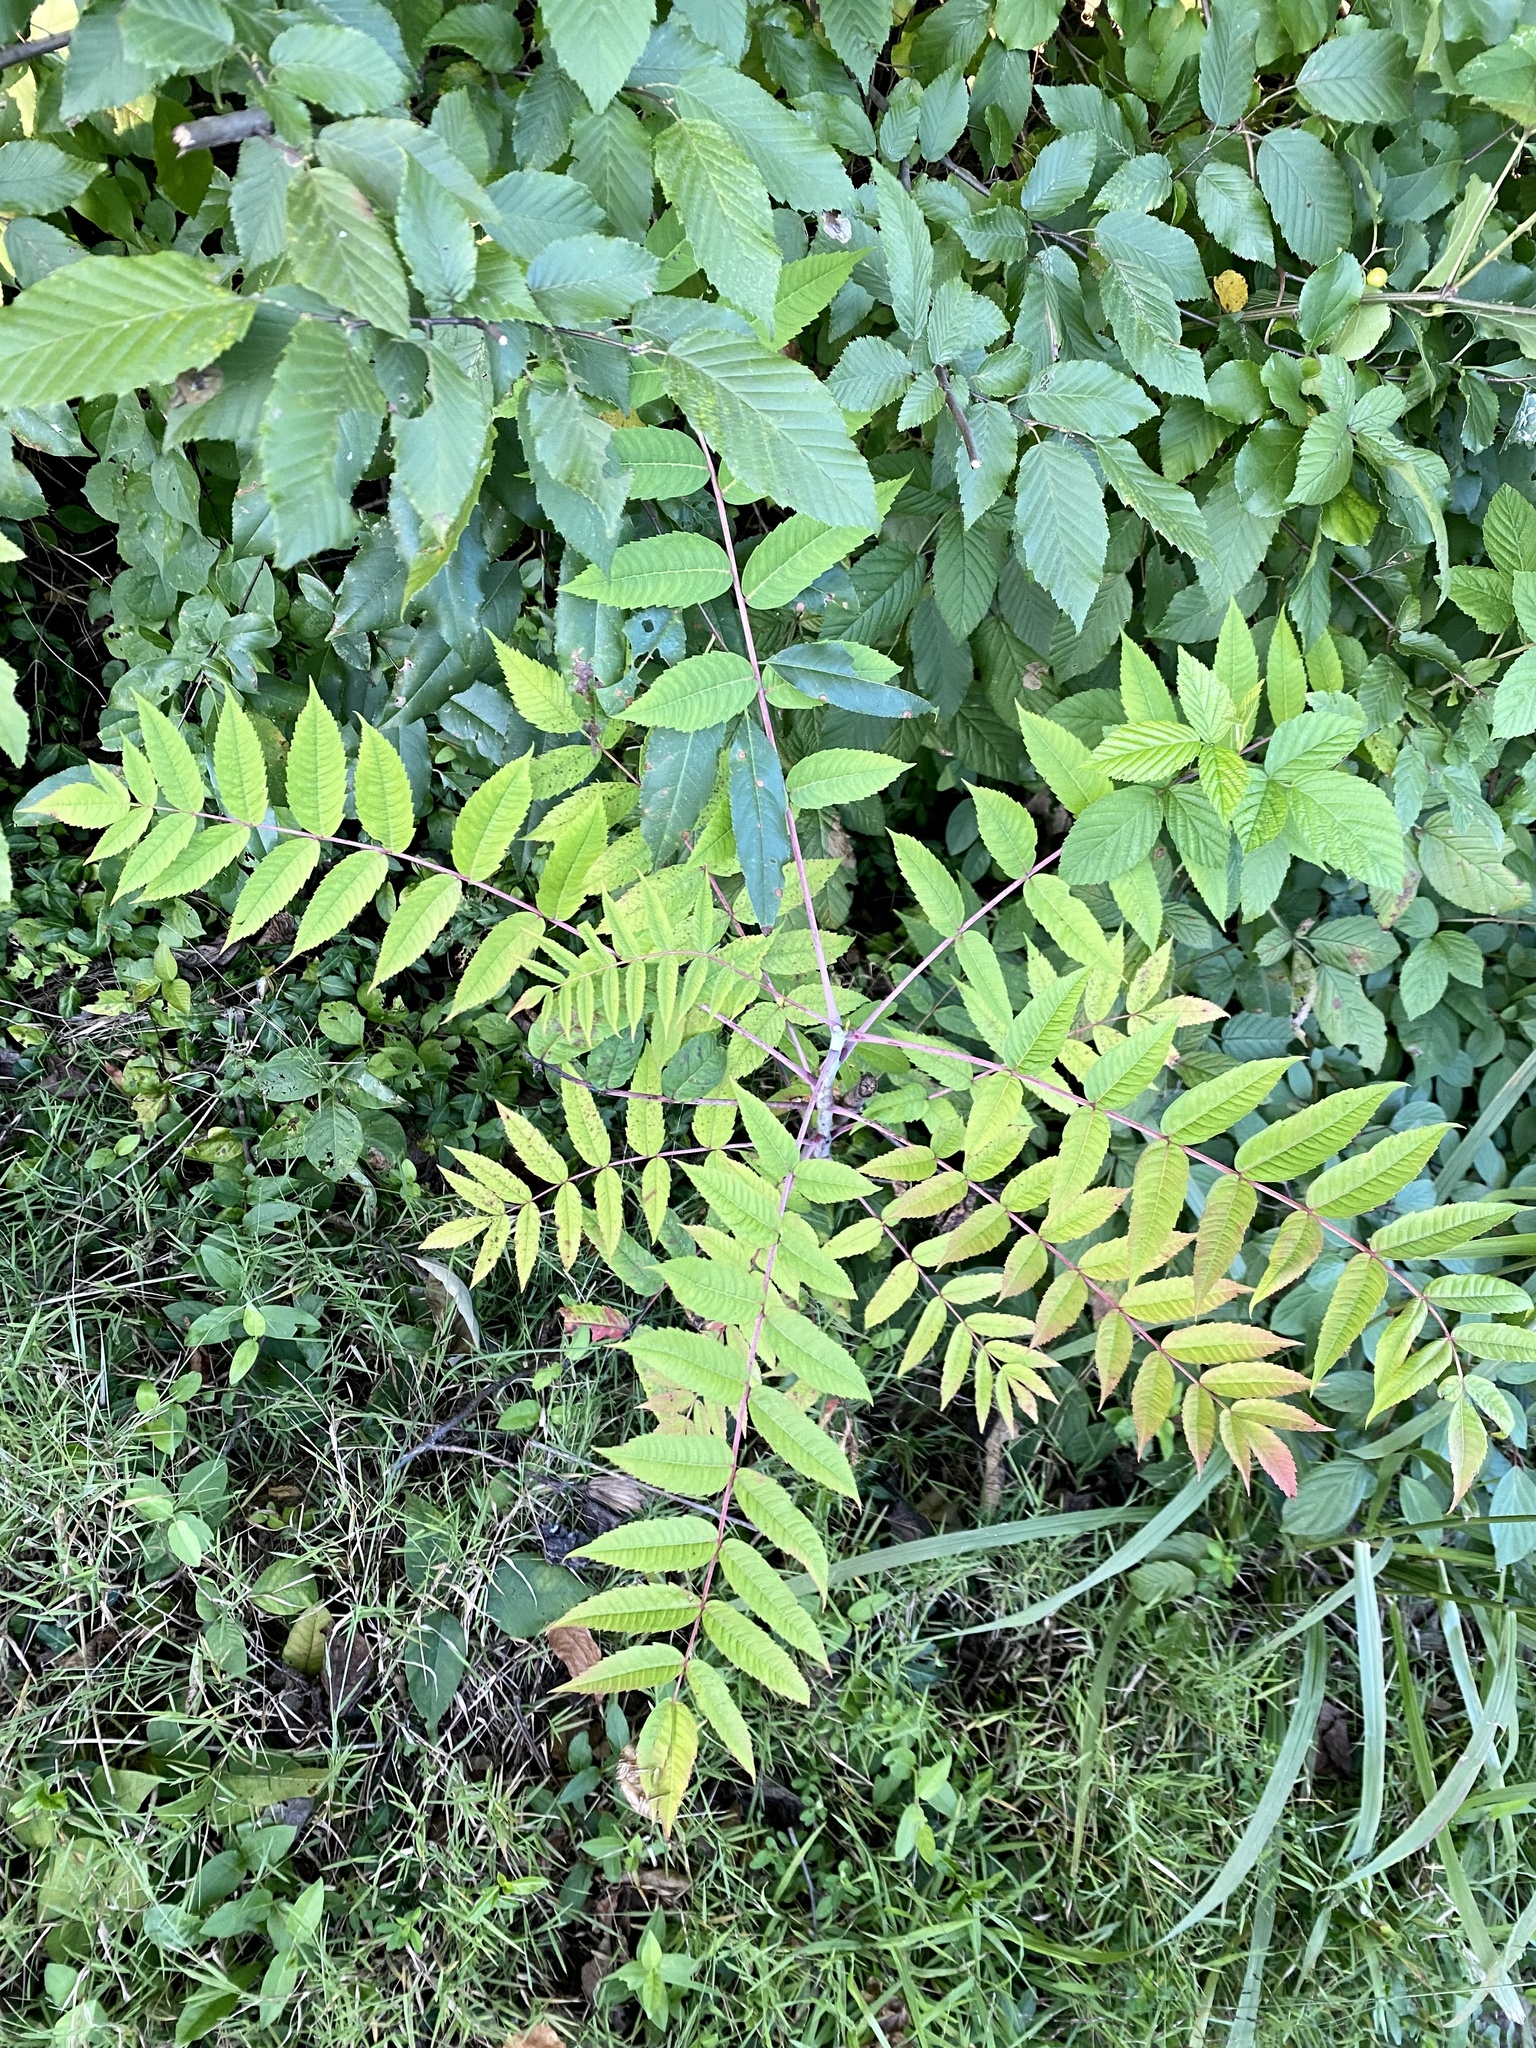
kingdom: Plantae
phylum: Tracheophyta
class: Magnoliopsida
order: Sapindales
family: Anacardiaceae
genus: Rhus
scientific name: Rhus glabra
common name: Scarlet sumac
